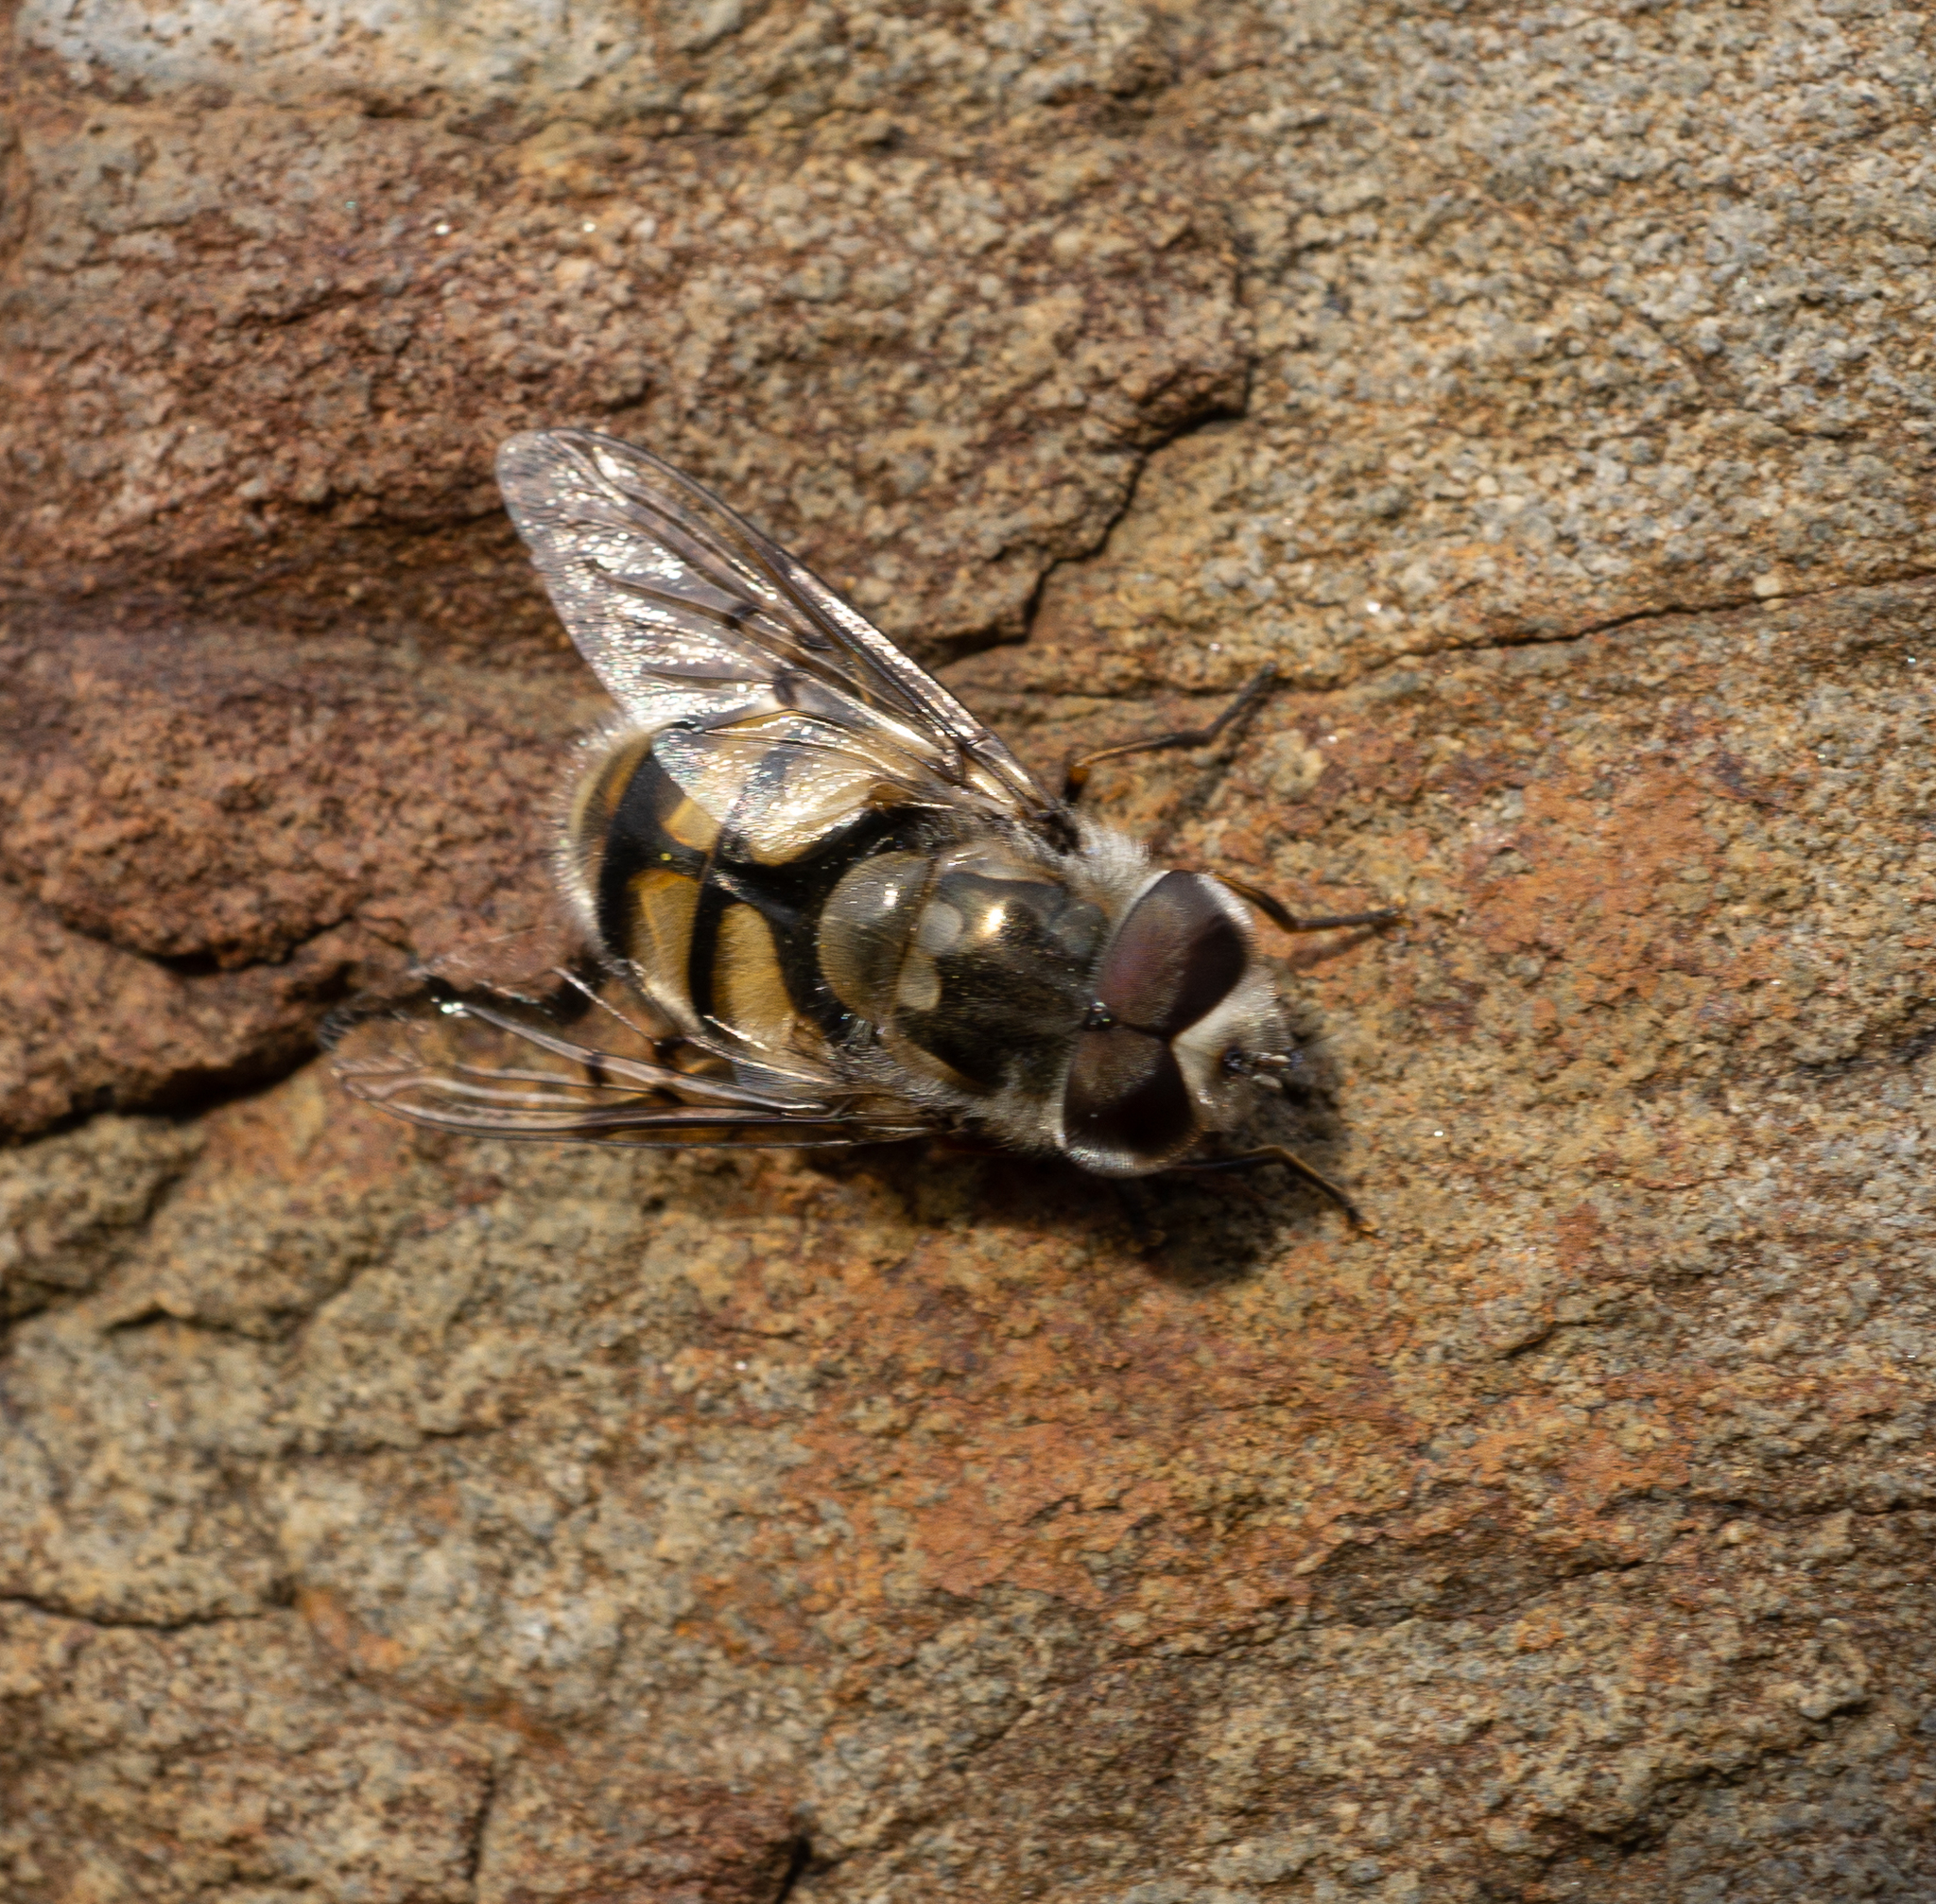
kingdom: Animalia
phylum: Arthropoda
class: Insecta
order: Diptera
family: Syrphidae
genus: Copestylum
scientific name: Copestylum avidum
